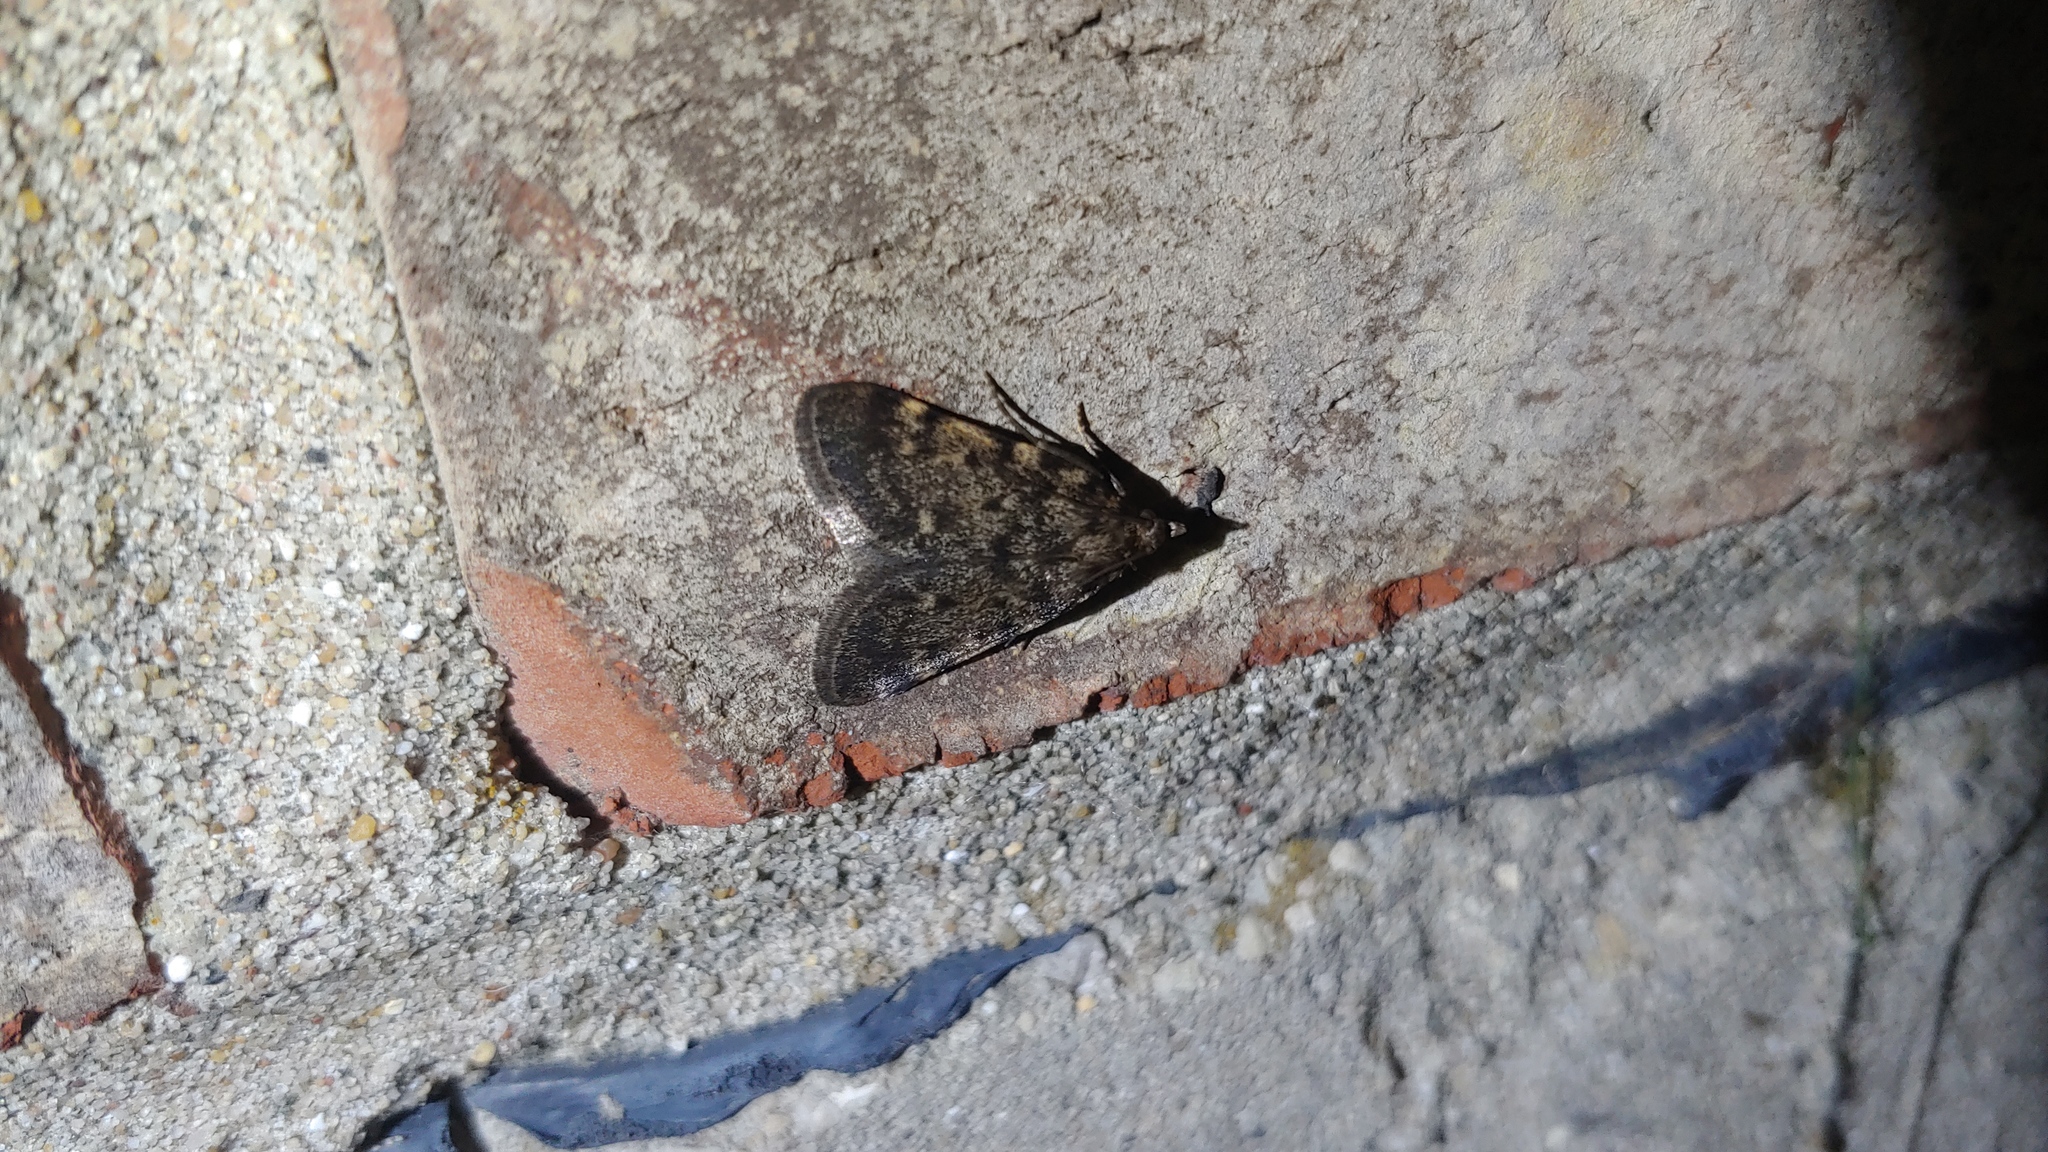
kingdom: Animalia
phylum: Arthropoda
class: Insecta
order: Lepidoptera
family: Pyralidae
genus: Aglossa
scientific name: Aglossa pinguinalis
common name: Large tabby
